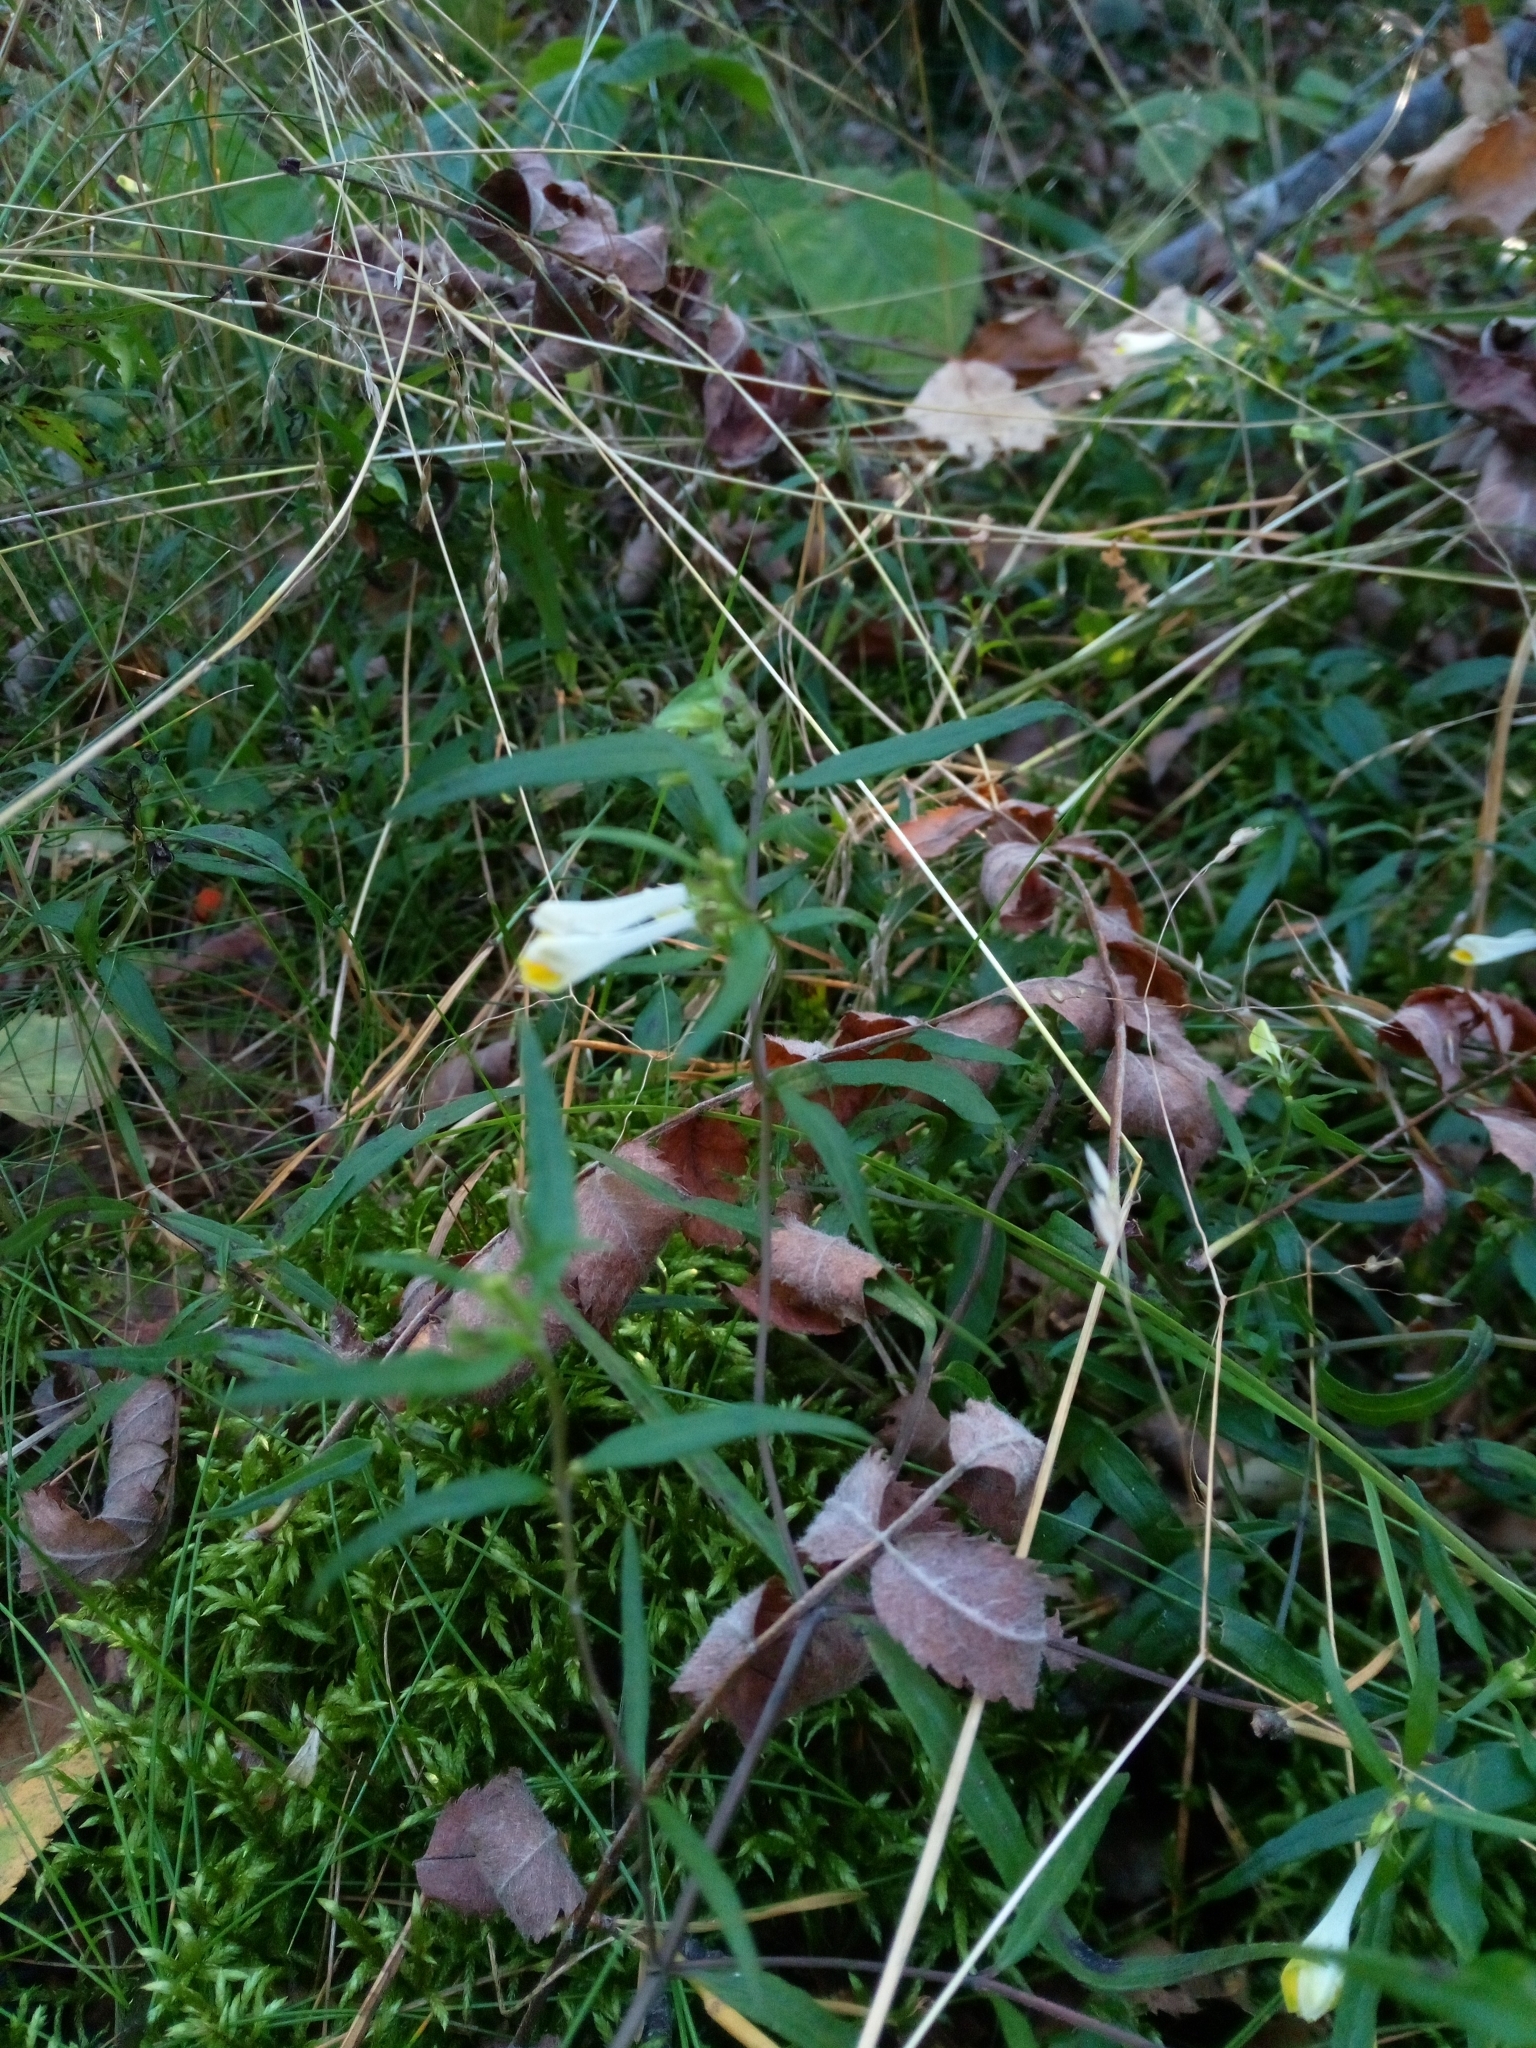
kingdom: Plantae
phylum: Tracheophyta
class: Magnoliopsida
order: Lamiales
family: Orobanchaceae
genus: Melampyrum
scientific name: Melampyrum pratense
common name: Common cow-wheat
